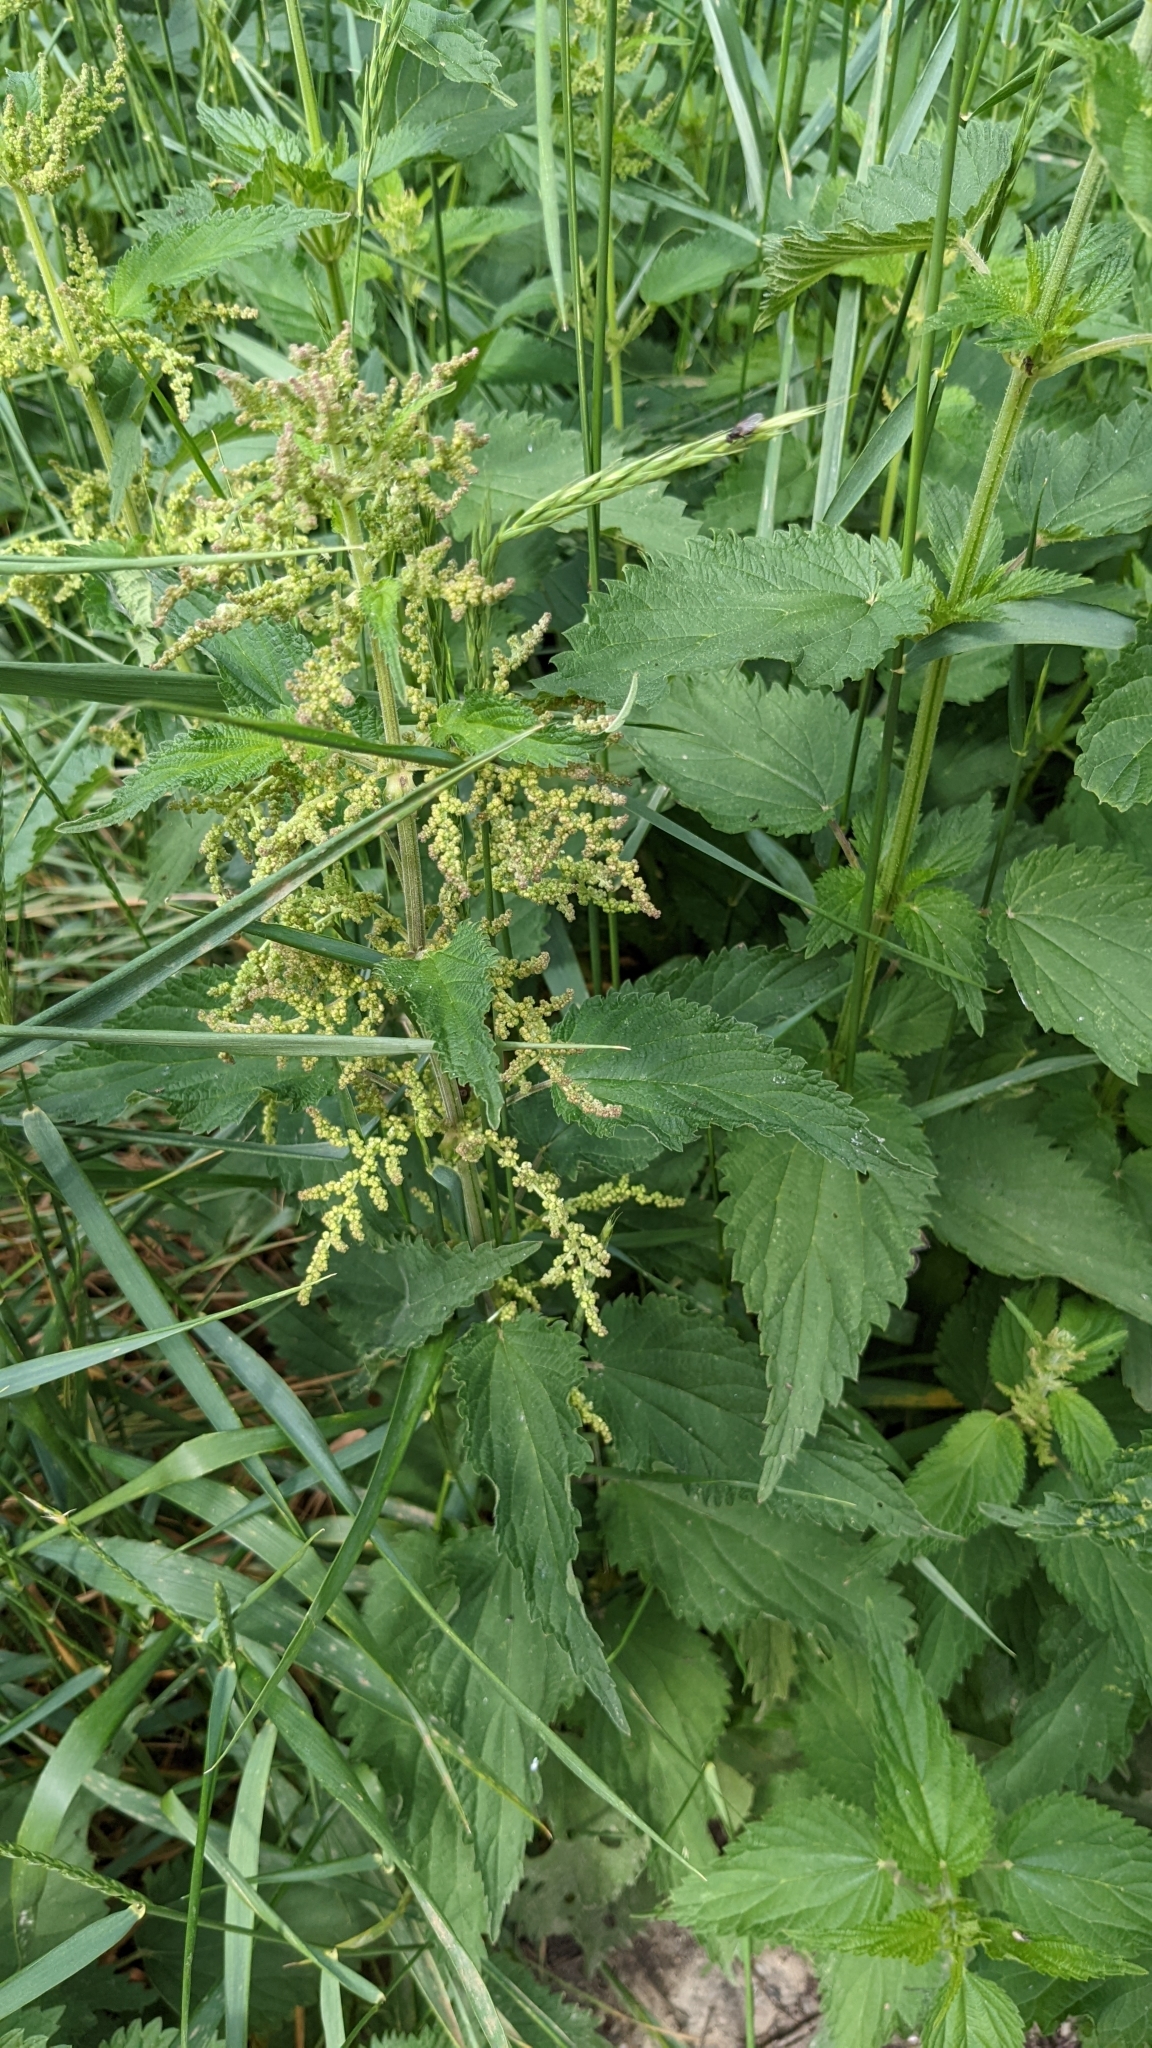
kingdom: Plantae
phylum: Tracheophyta
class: Magnoliopsida
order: Rosales
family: Urticaceae
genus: Urtica
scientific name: Urtica dioica
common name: Common nettle
